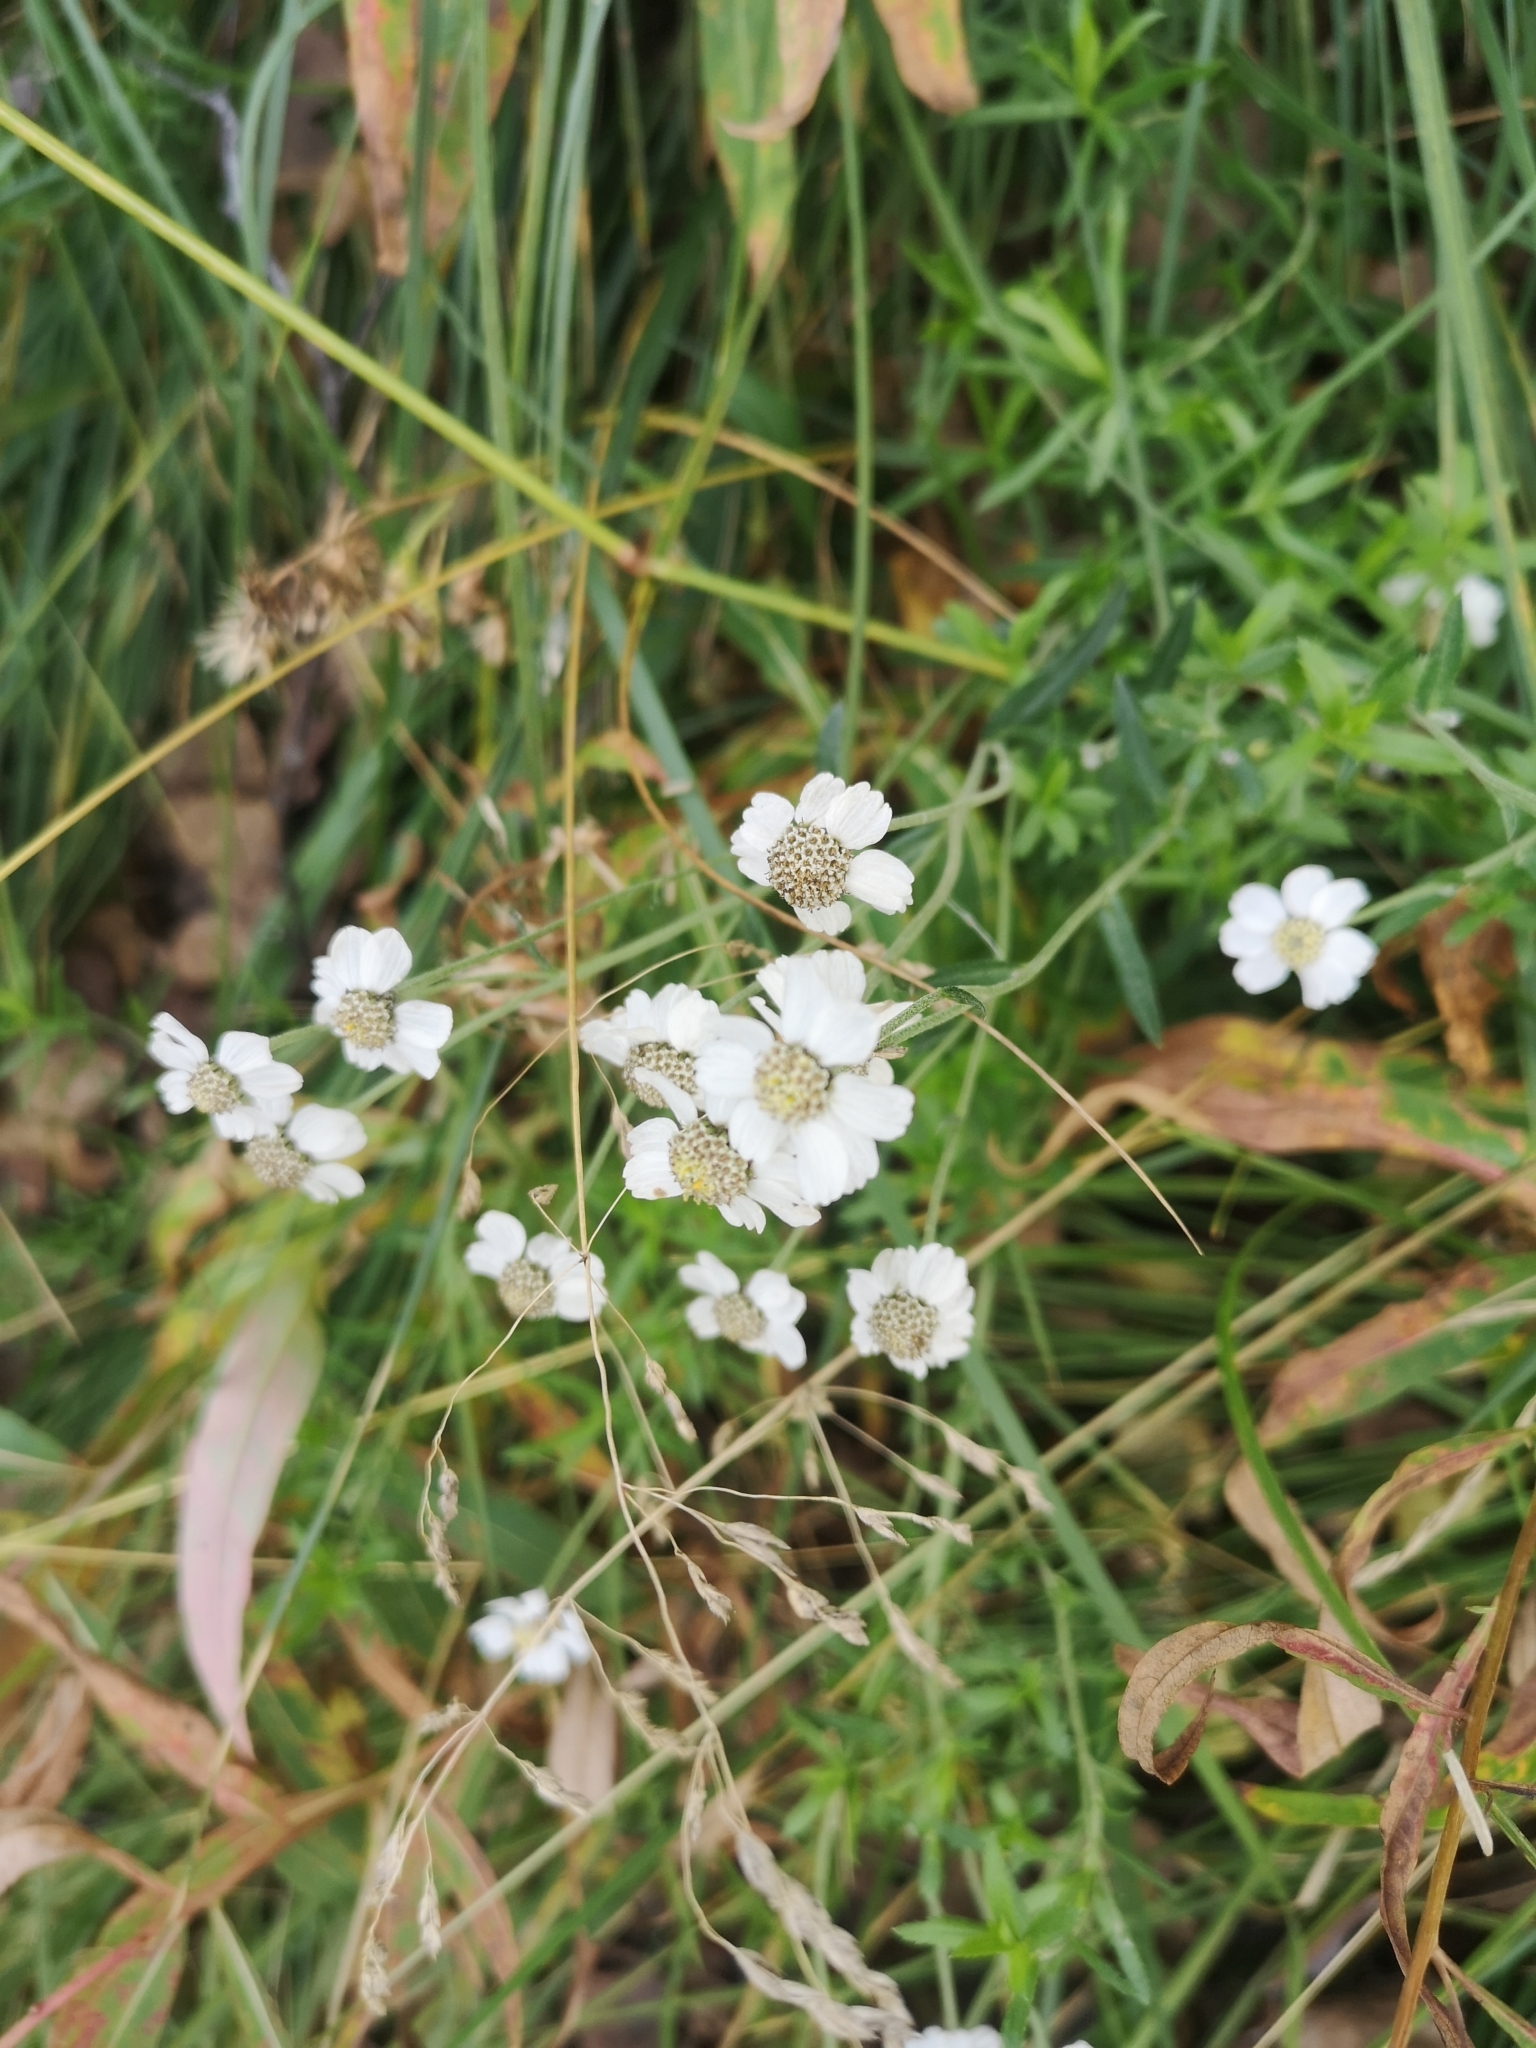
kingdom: Plantae
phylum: Tracheophyta
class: Magnoliopsida
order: Asterales
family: Asteraceae
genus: Achillea
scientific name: Achillea ptarmica
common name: Sneezeweed
